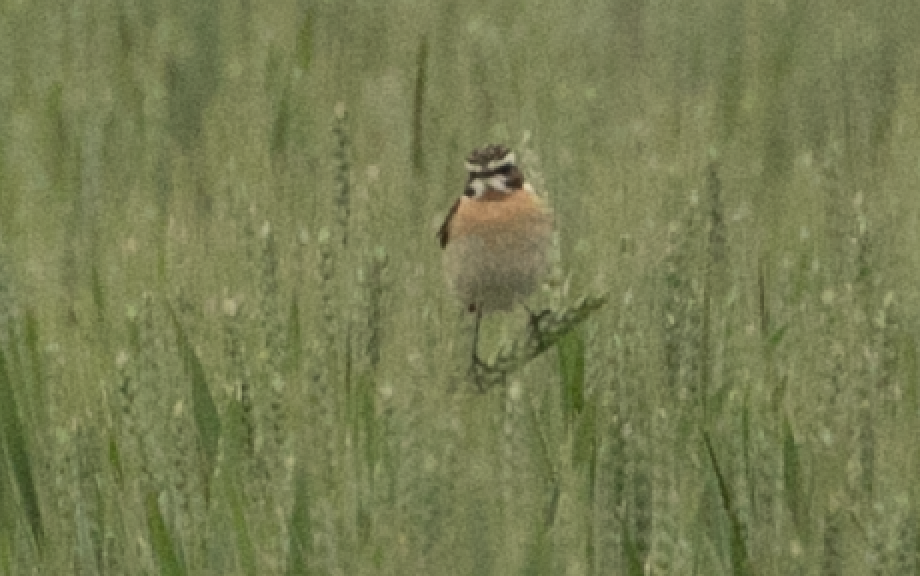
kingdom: Animalia
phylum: Chordata
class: Aves
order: Passeriformes
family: Muscicapidae
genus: Saxicola
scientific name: Saxicola rubetra
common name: Whinchat
